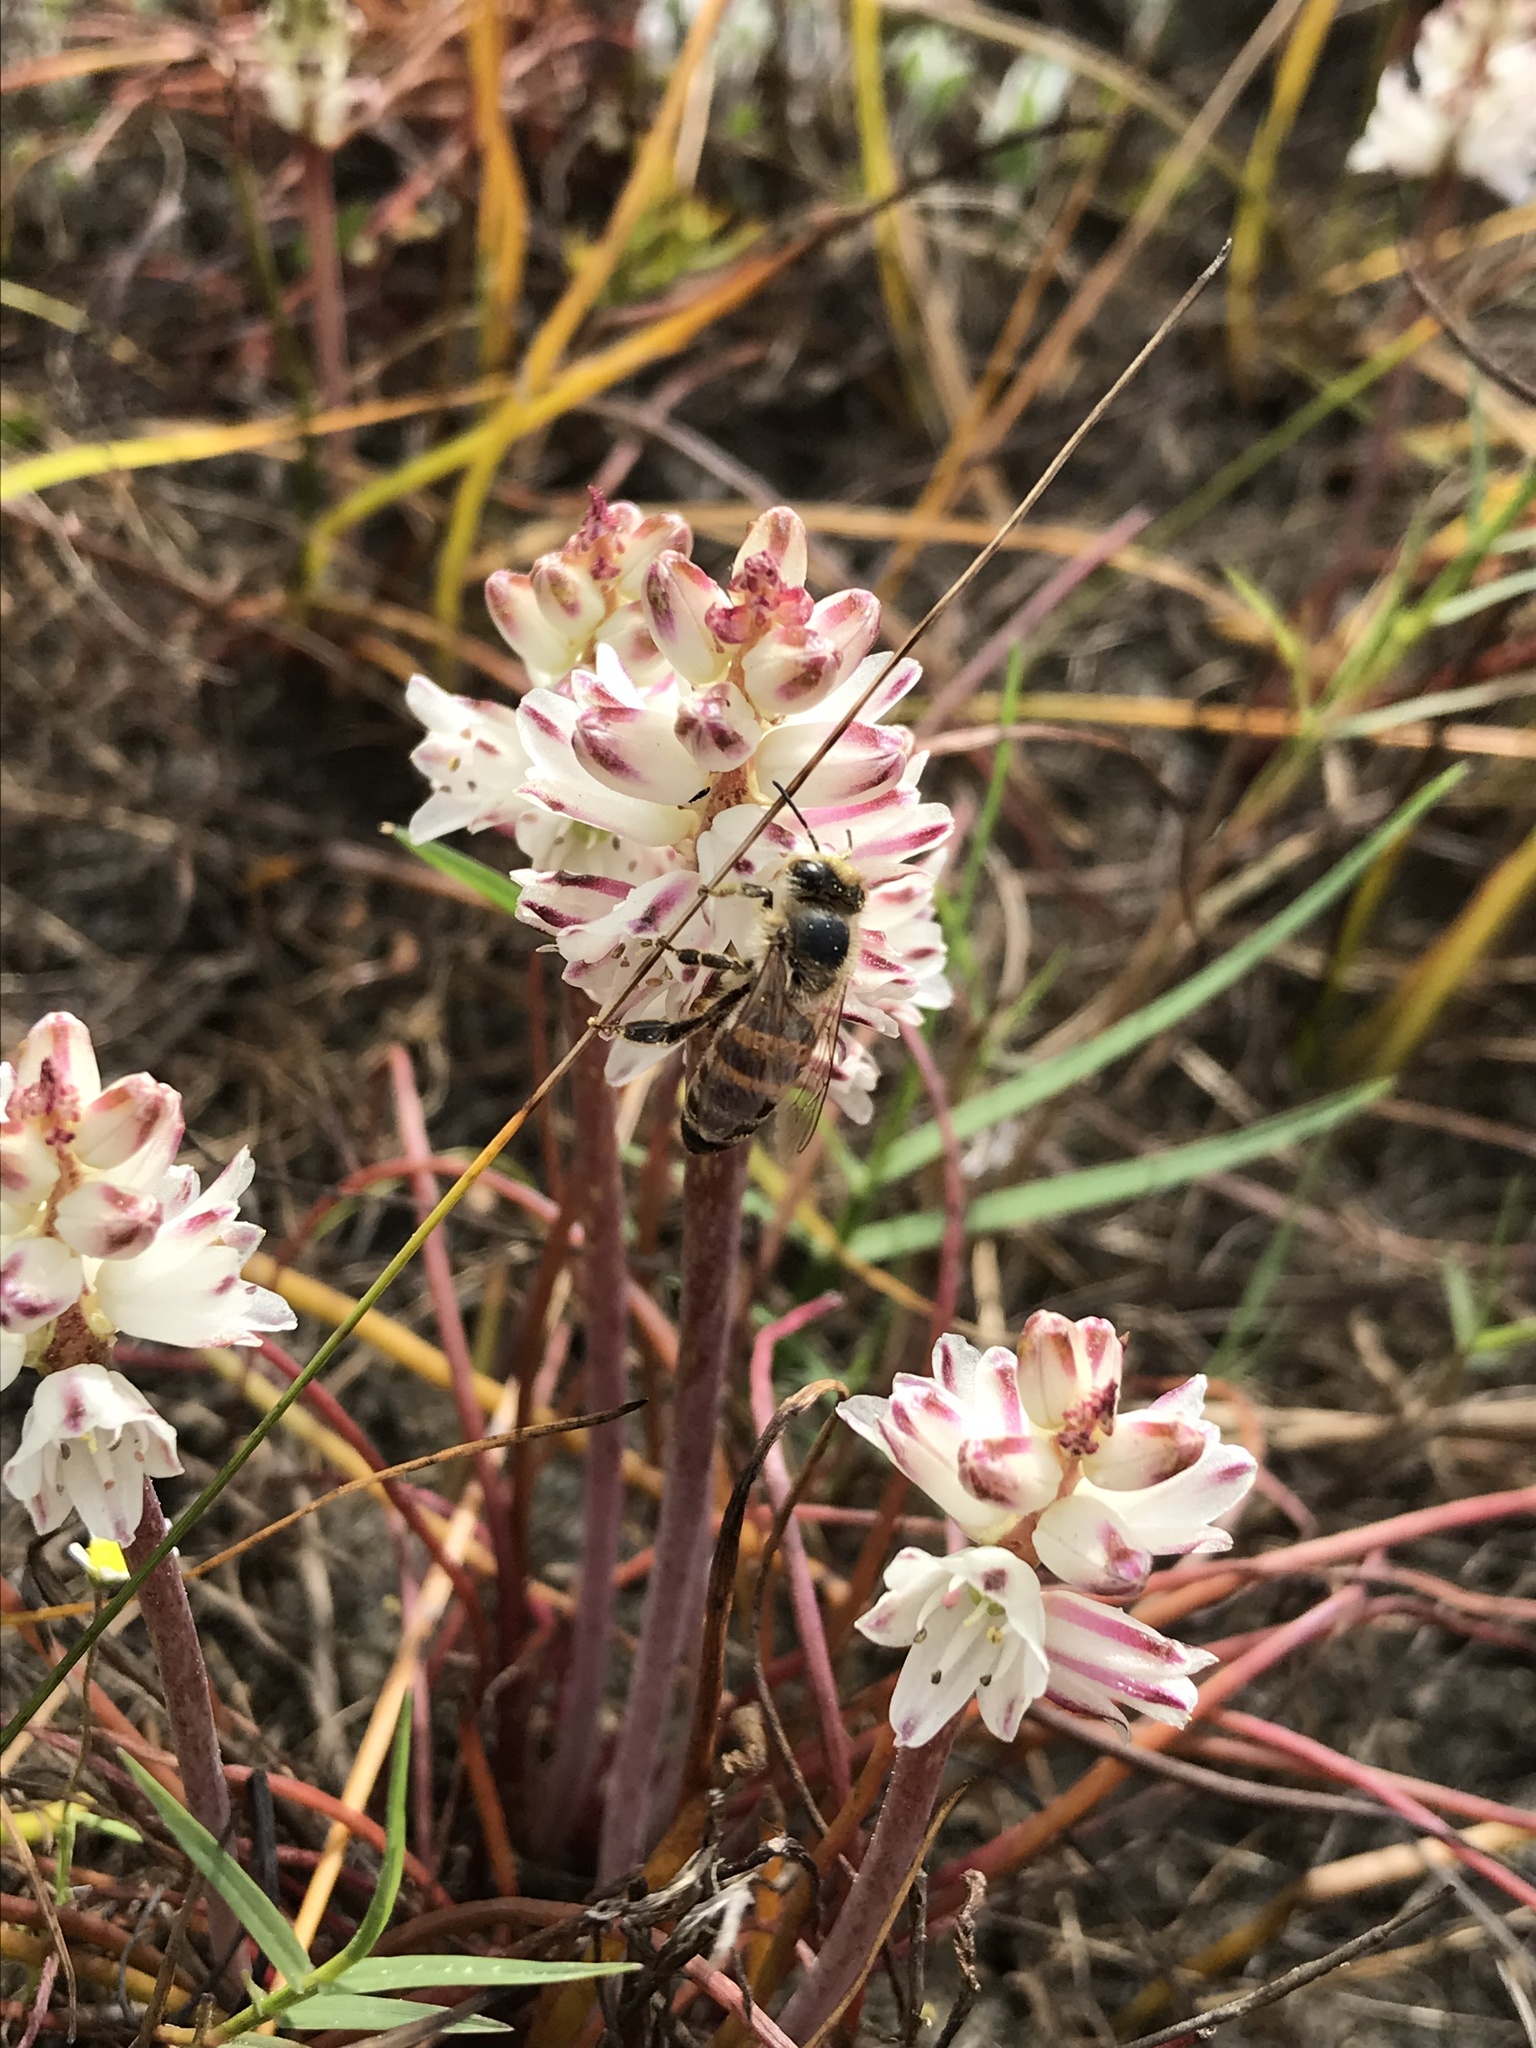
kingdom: Plantae
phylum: Tracheophyta
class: Liliopsida
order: Asparagales
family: Asparagaceae
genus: Lachenalia
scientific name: Lachenalia contaminata
